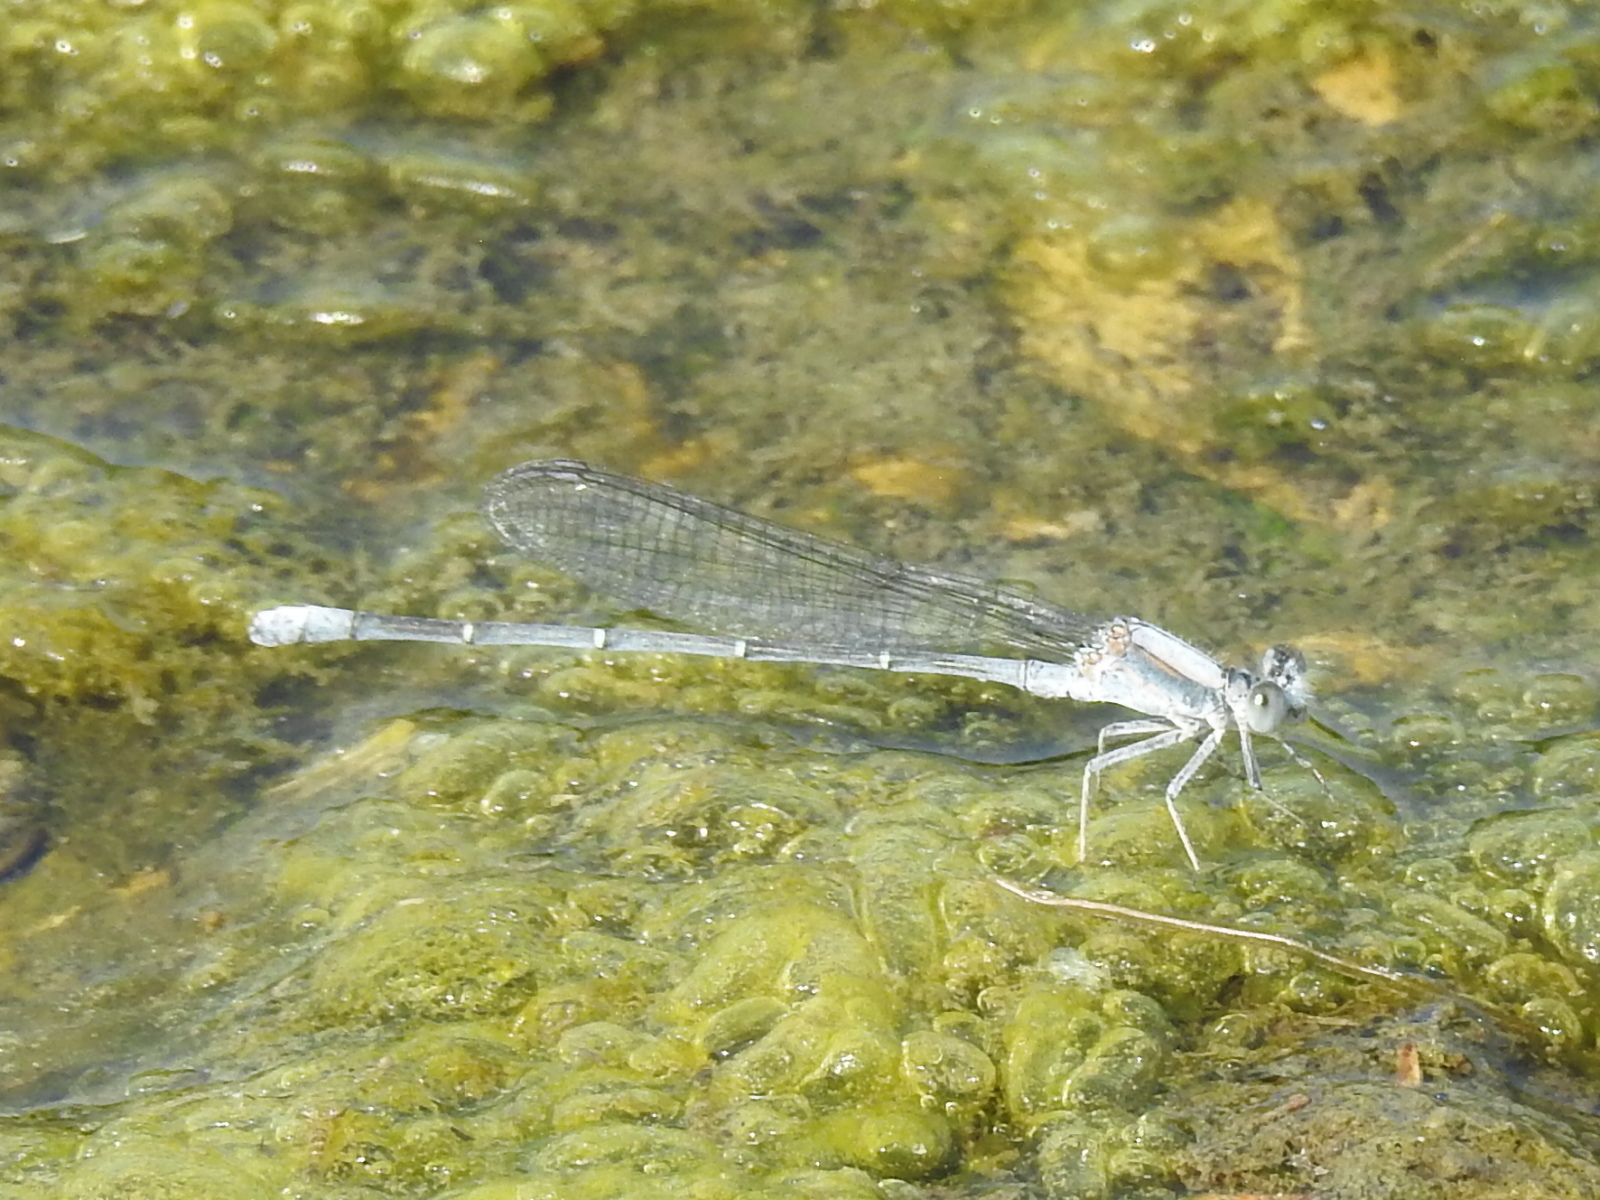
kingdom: Animalia
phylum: Arthropoda
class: Insecta
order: Odonata
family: Coenagrionidae
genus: Argia
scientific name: Argia moesta
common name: Powdered dancer
